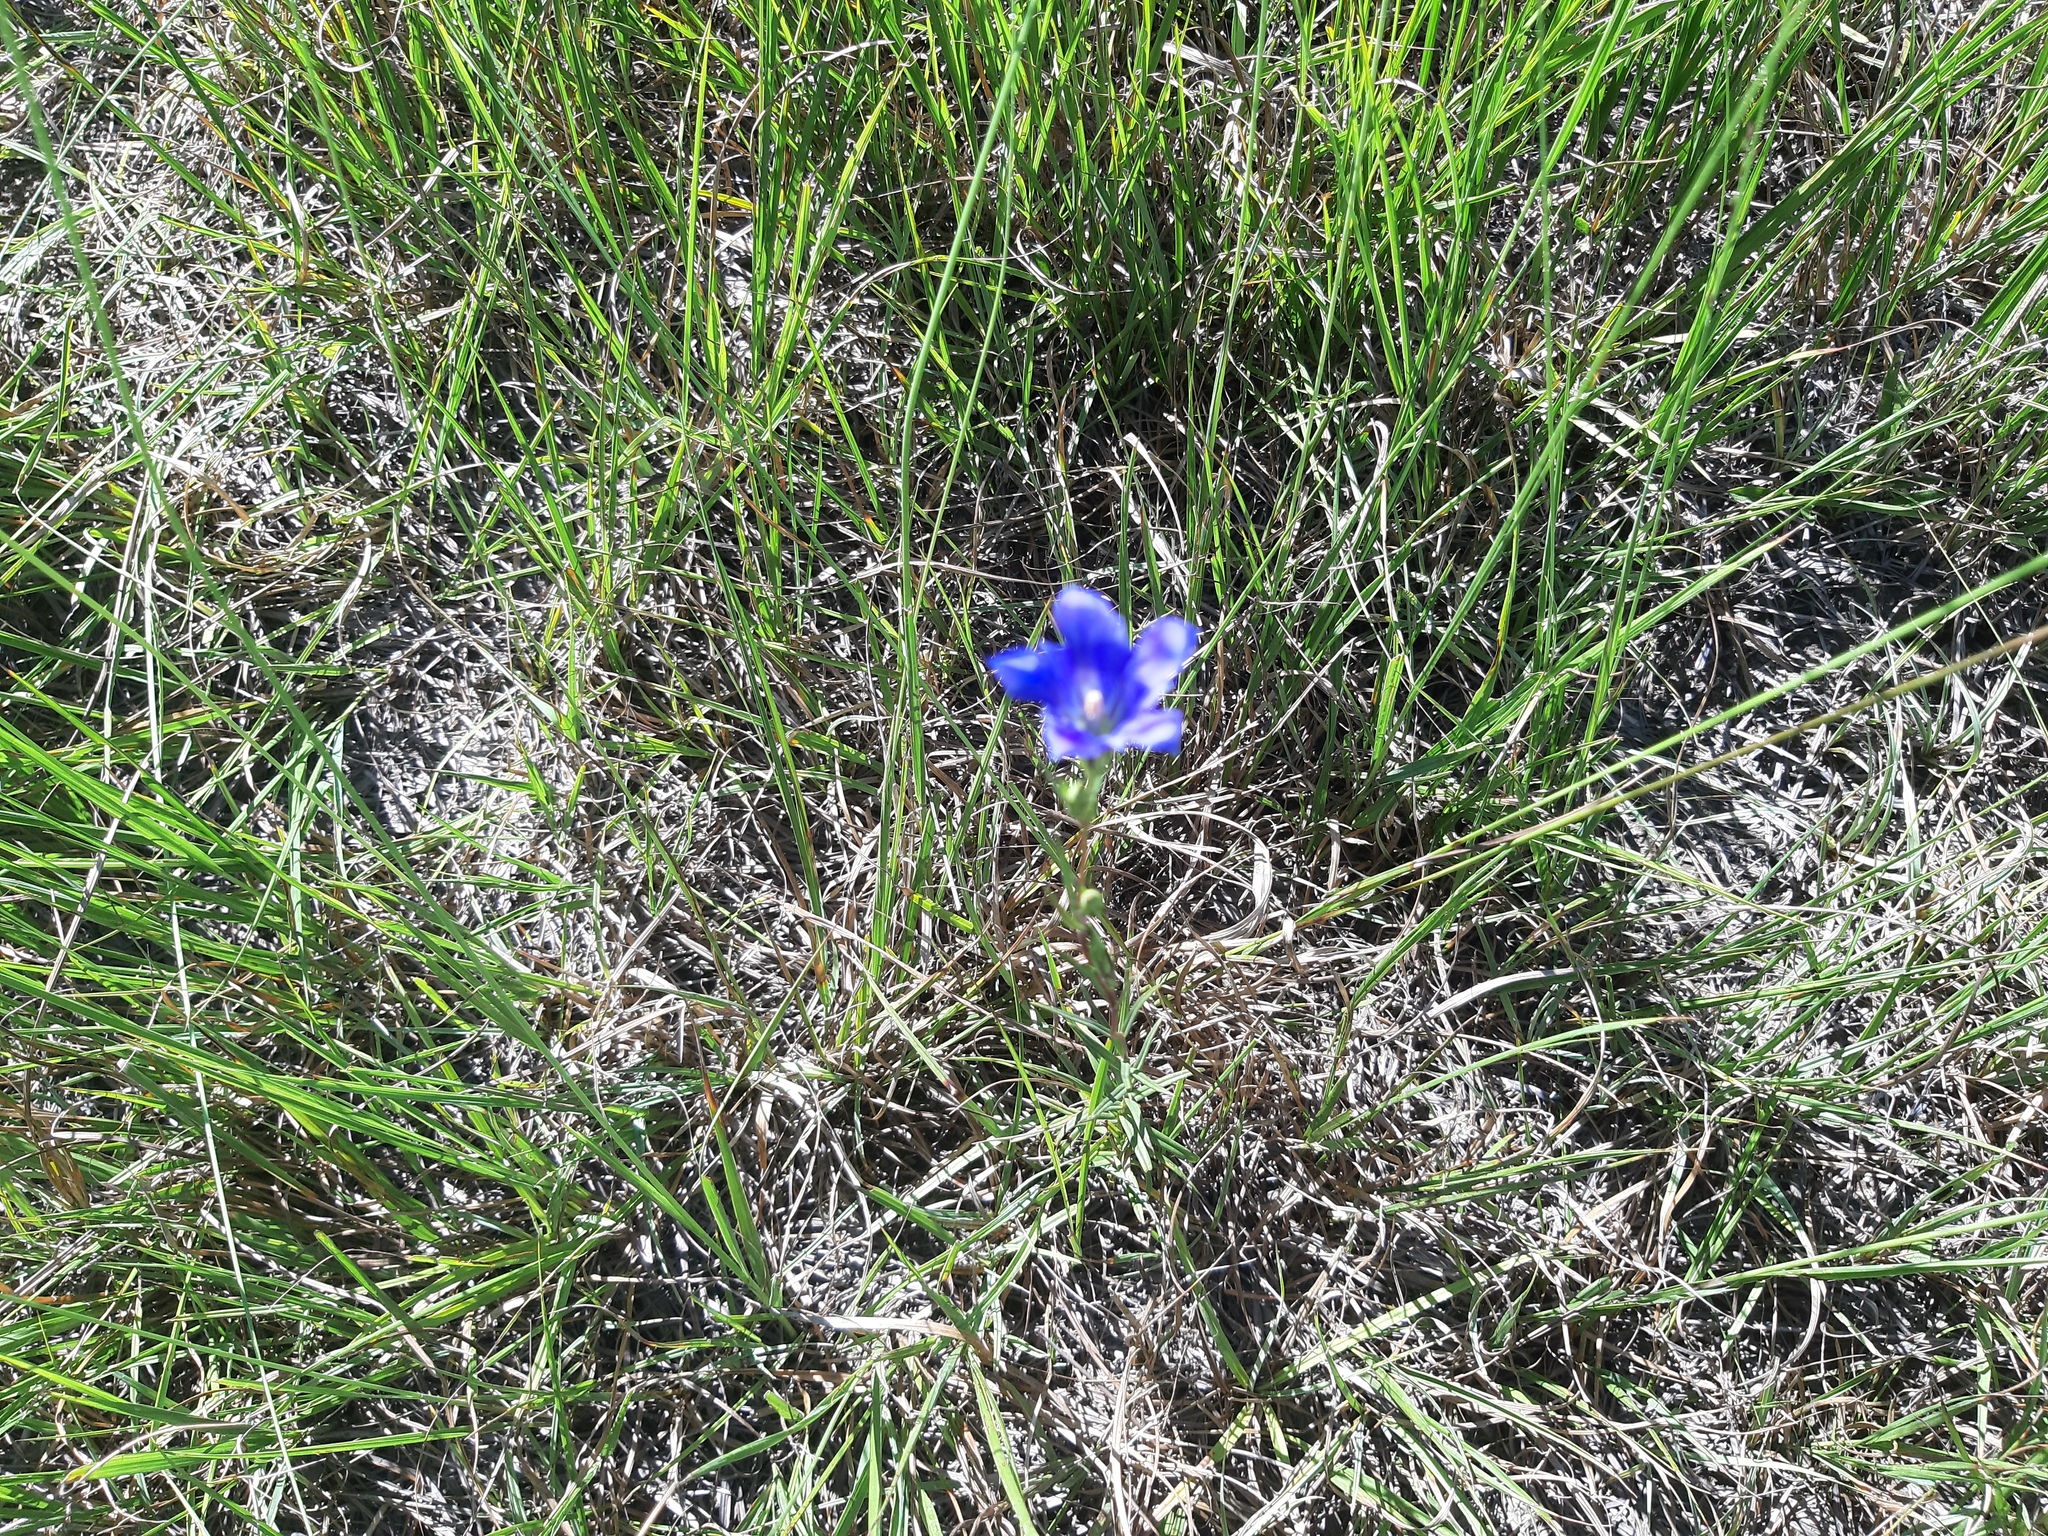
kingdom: Plantae
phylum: Tracheophyta
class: Magnoliopsida
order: Gentianales
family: Gentianaceae
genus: Gentiana
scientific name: Gentiana pneumonanthe
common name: Marsh gentian
